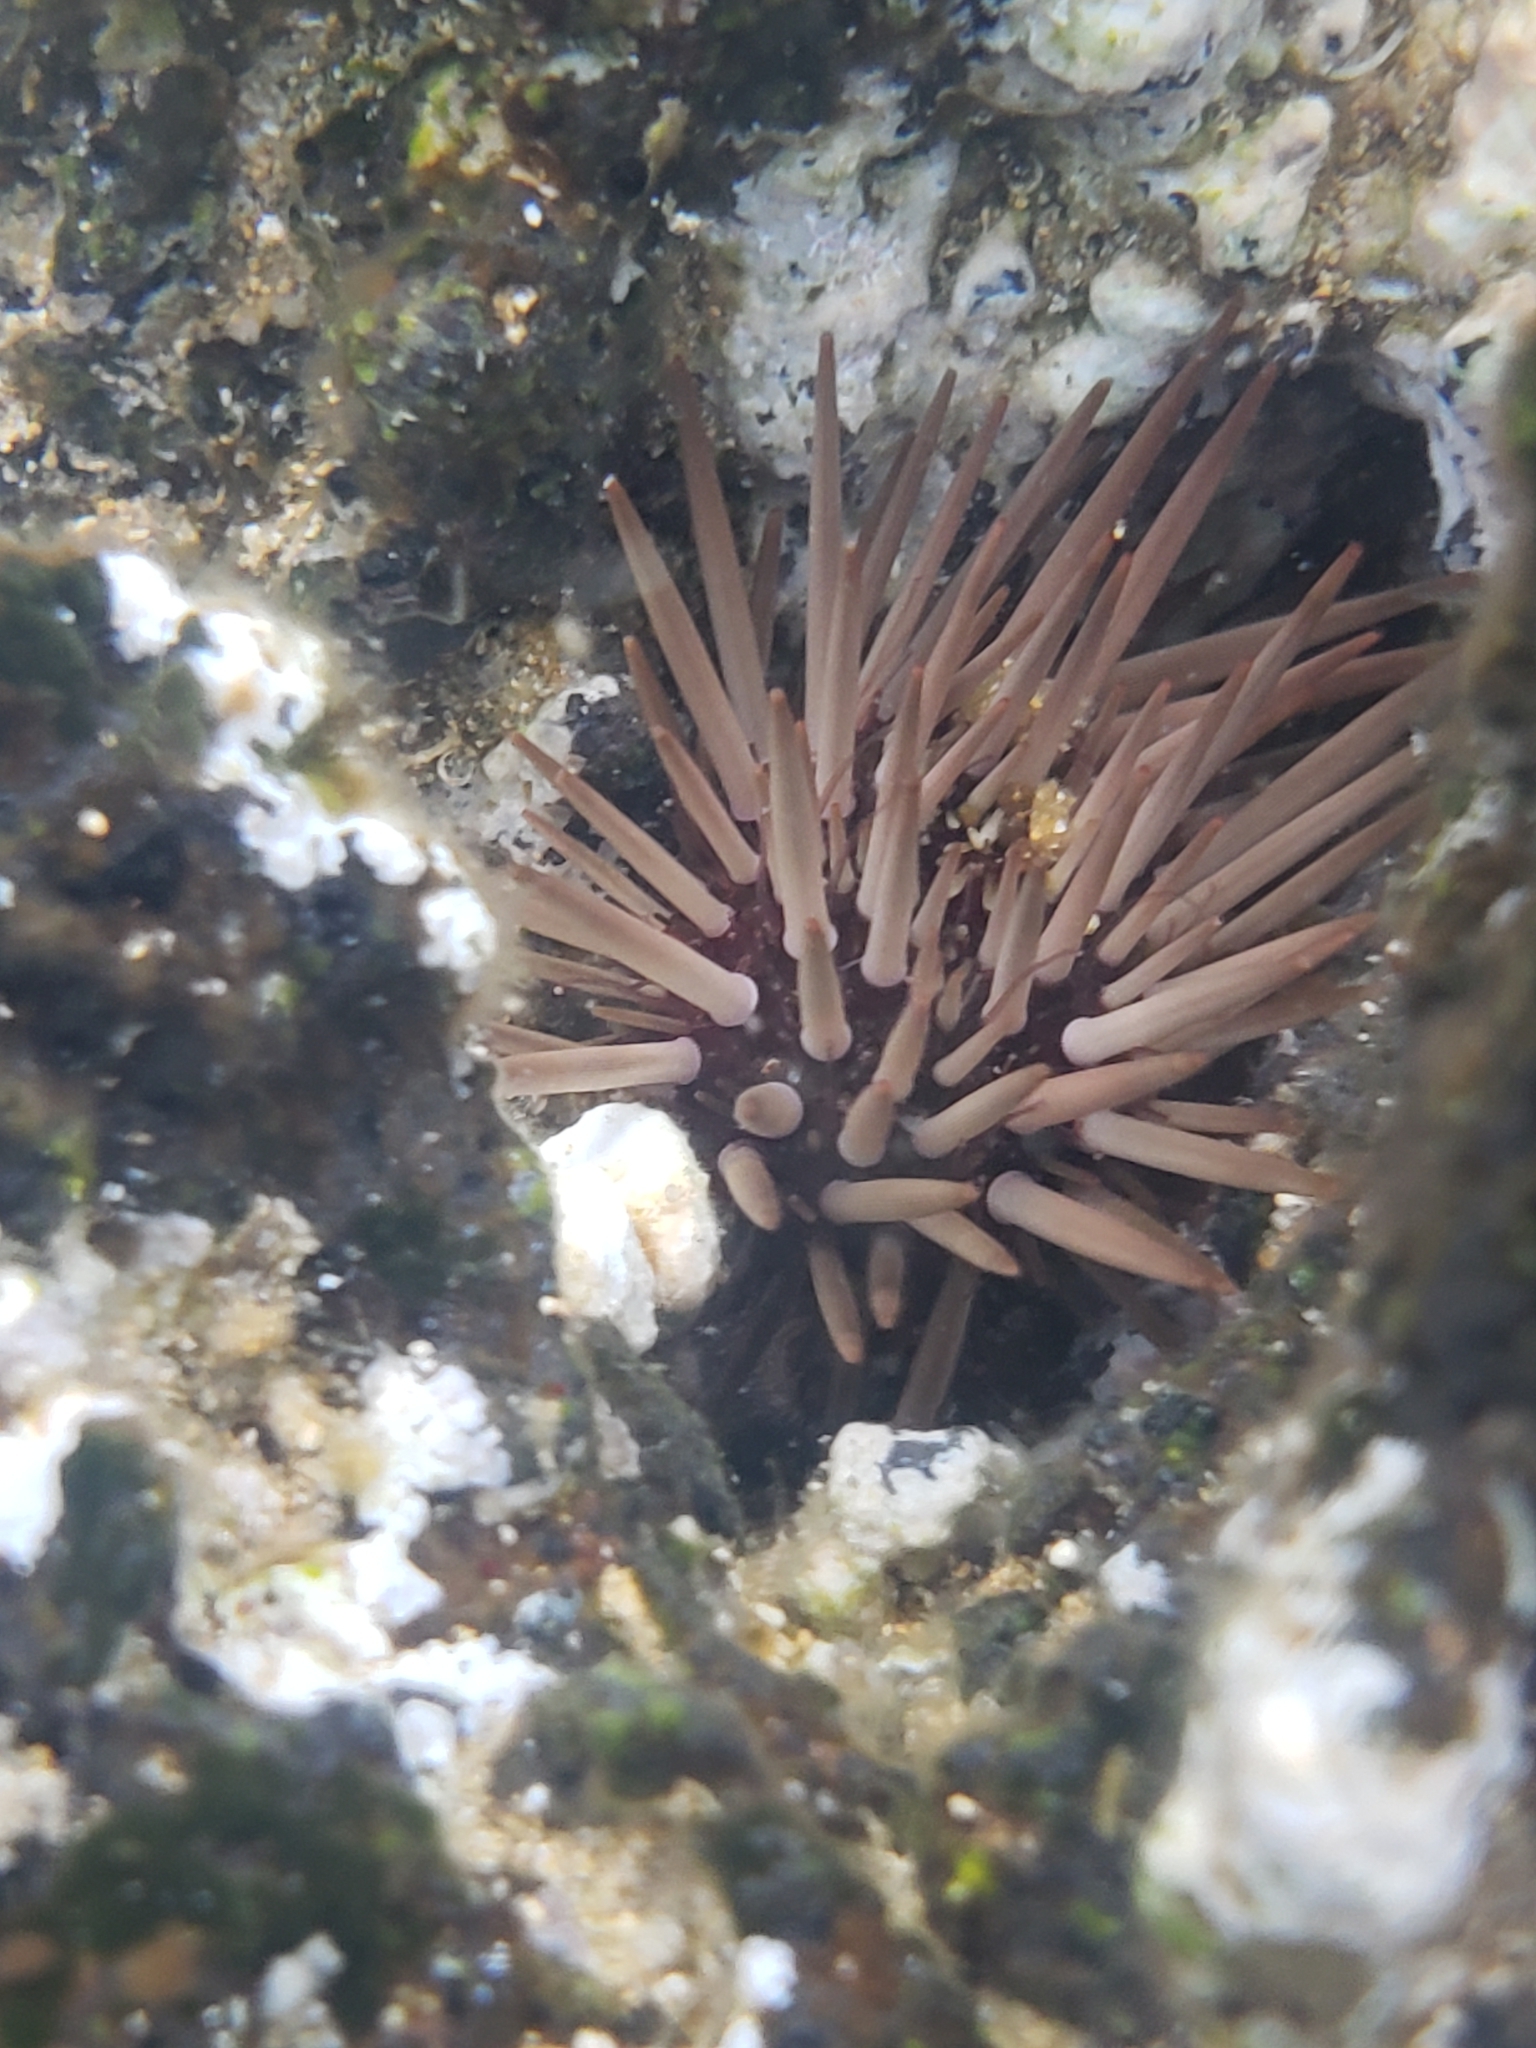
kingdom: Animalia
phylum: Echinodermata
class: Echinoidea
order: Camarodonta
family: Echinometridae
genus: Echinometra
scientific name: Echinometra mathaei
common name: Rock-boring urchin
